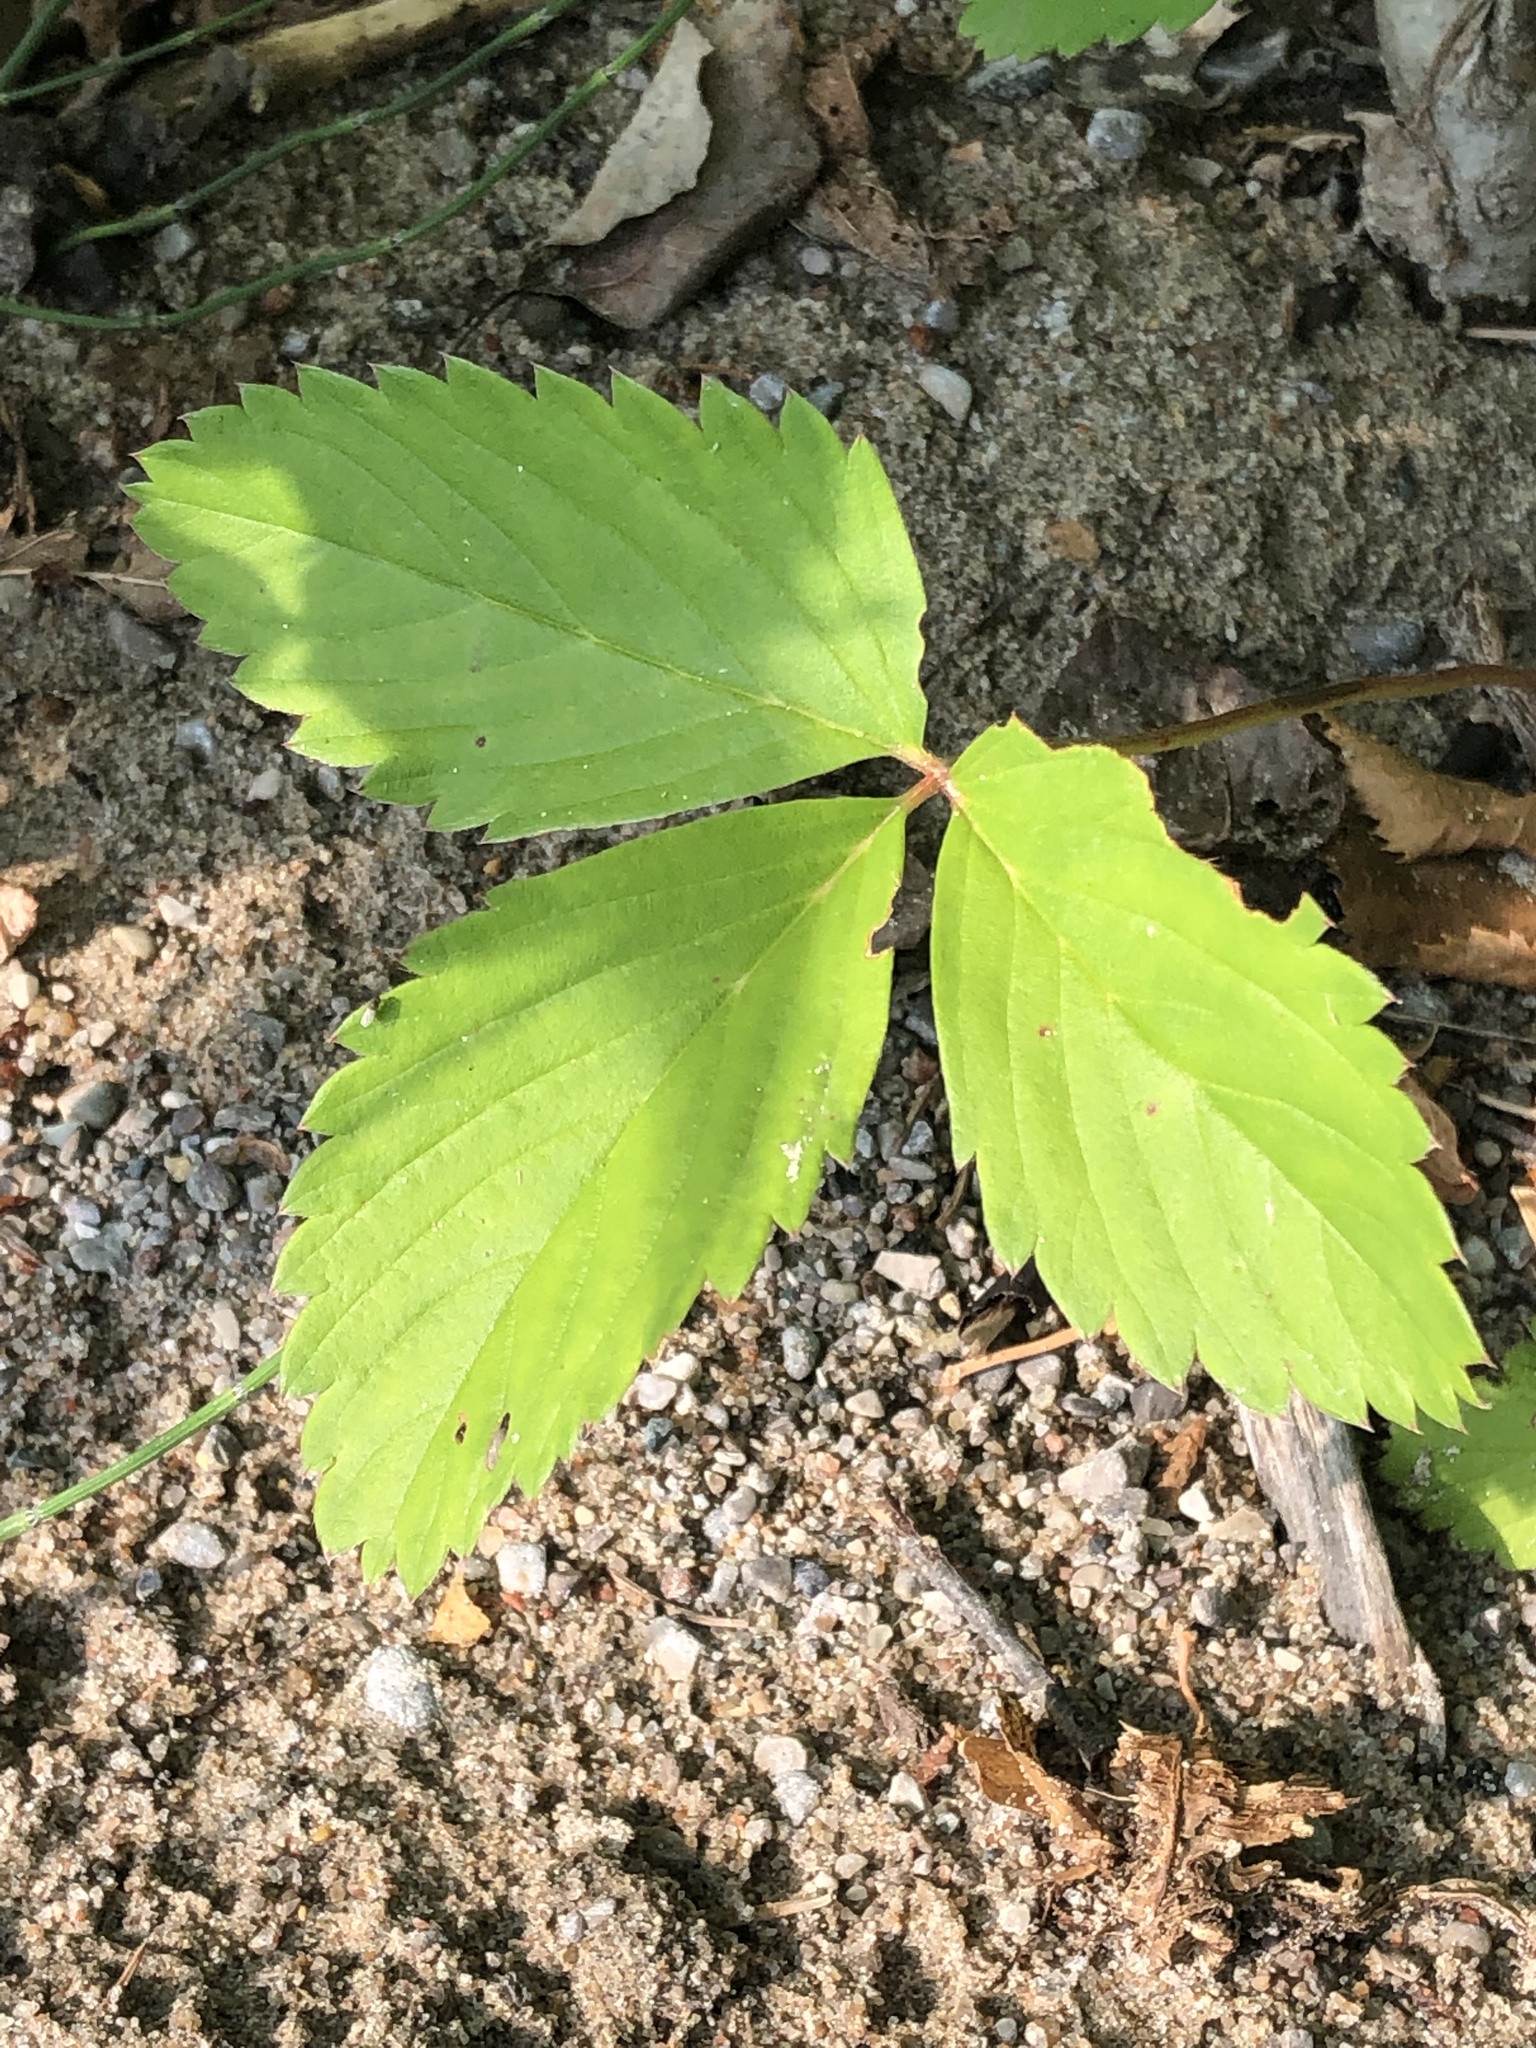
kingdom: Plantae
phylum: Tracheophyta
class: Magnoliopsida
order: Rosales
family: Rosaceae
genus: Fragaria
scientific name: Fragaria virginiana
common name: Thickleaved wild strawberry
